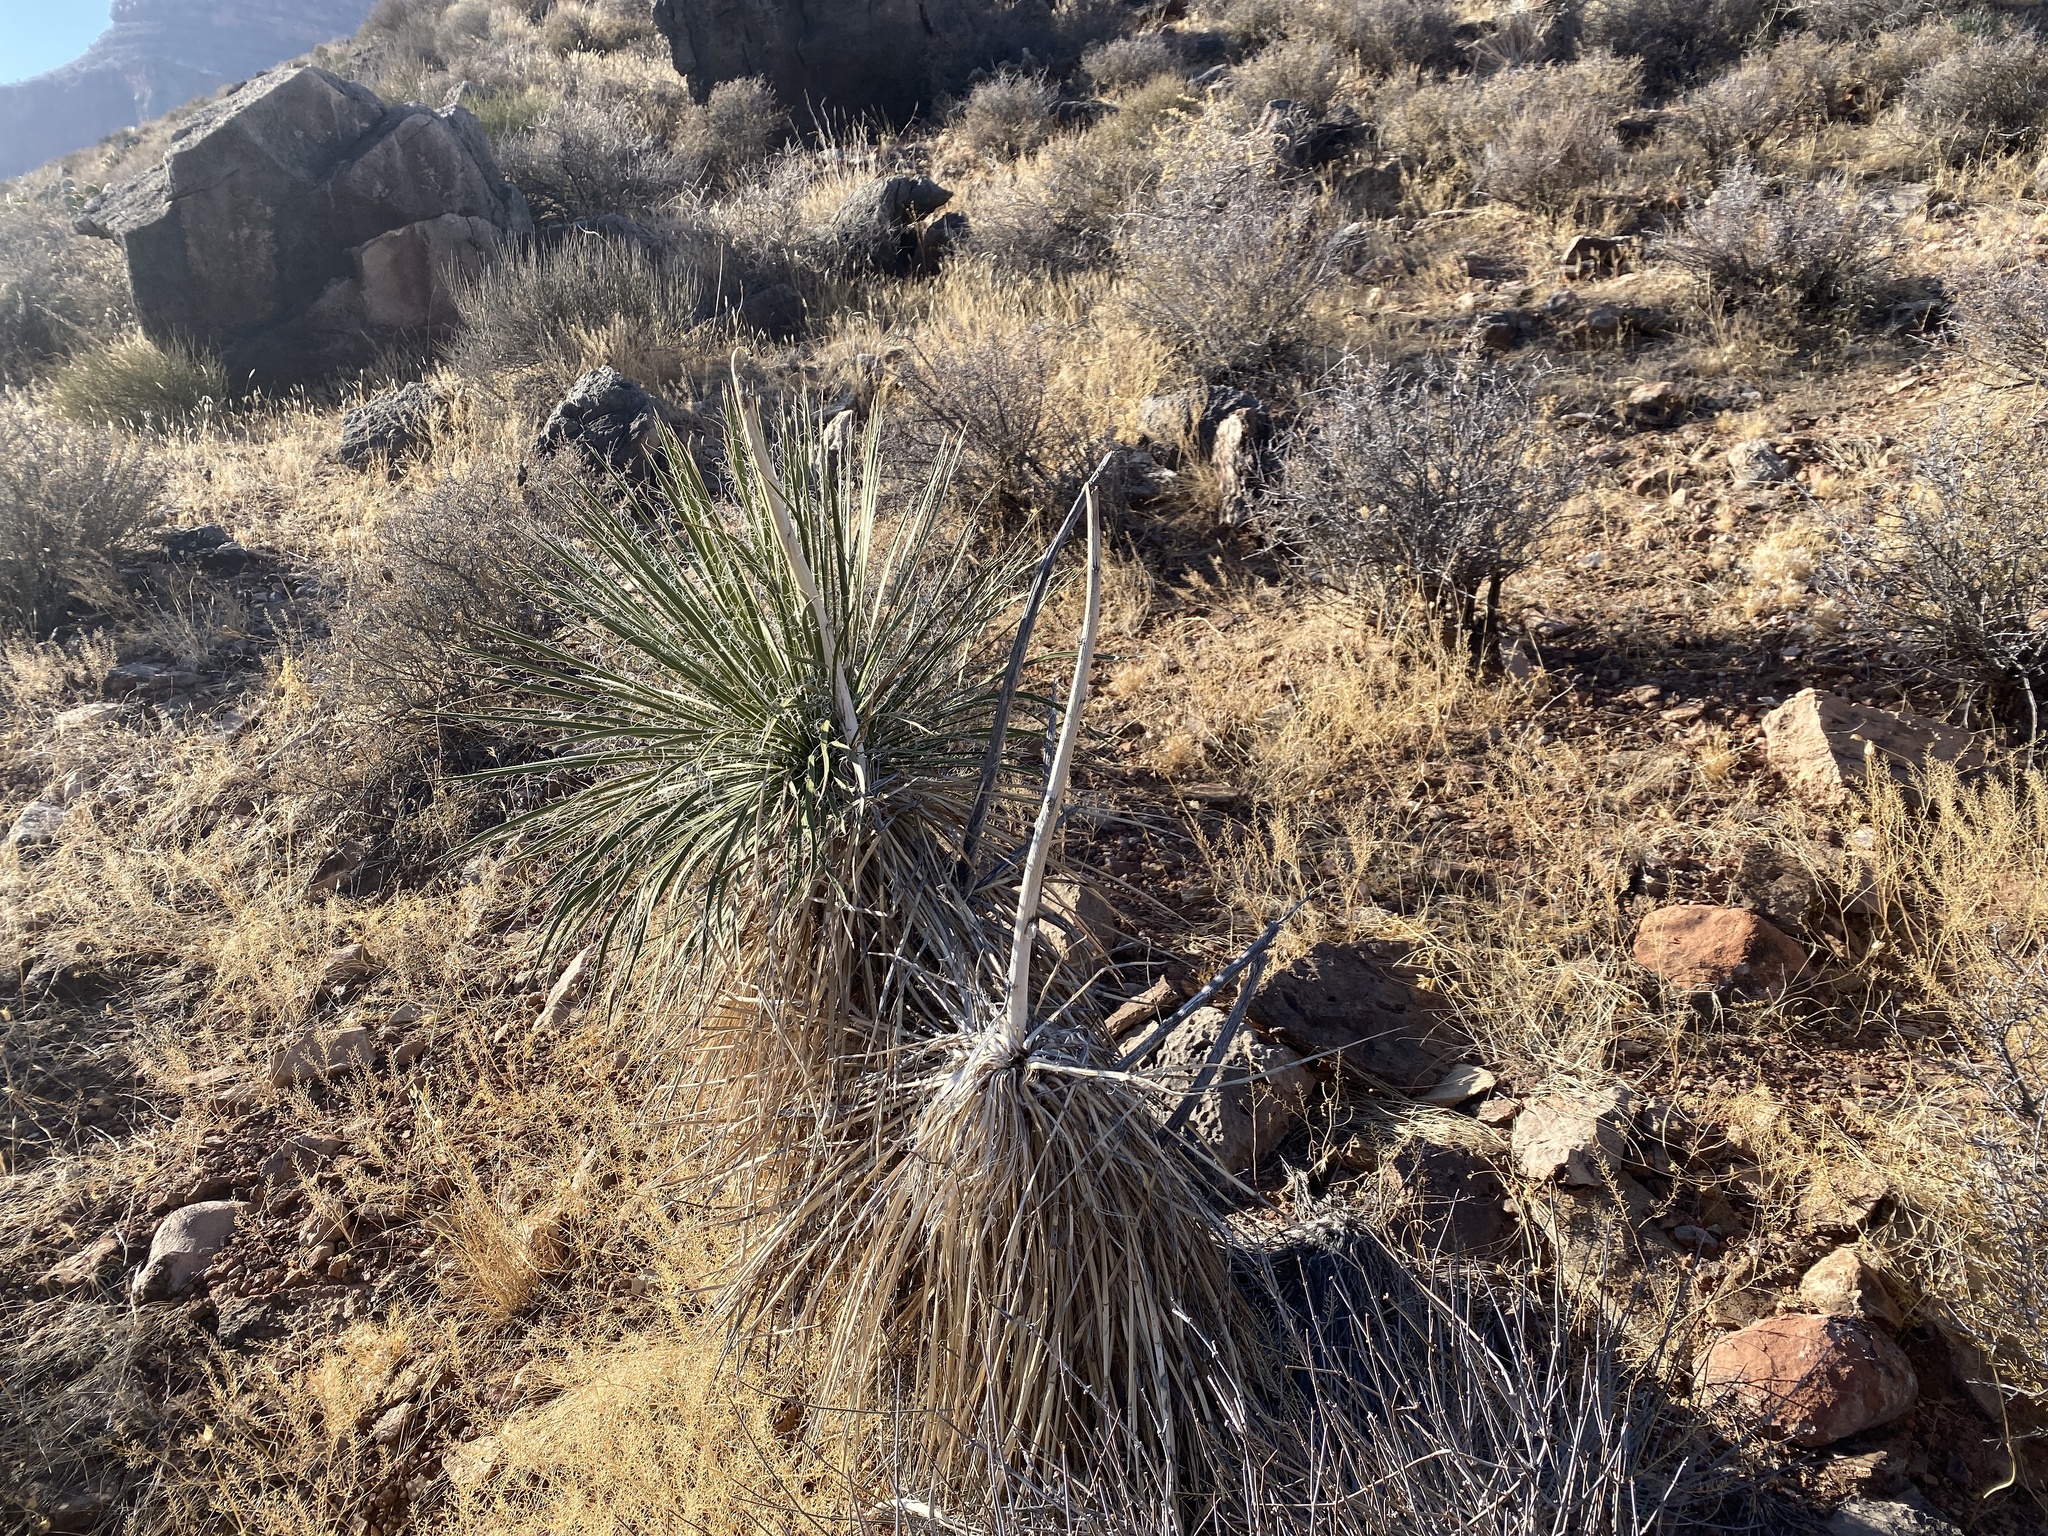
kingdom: Plantae
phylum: Tracheophyta
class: Liliopsida
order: Asparagales
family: Asparagaceae
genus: Yucca
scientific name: Yucca utahensis
